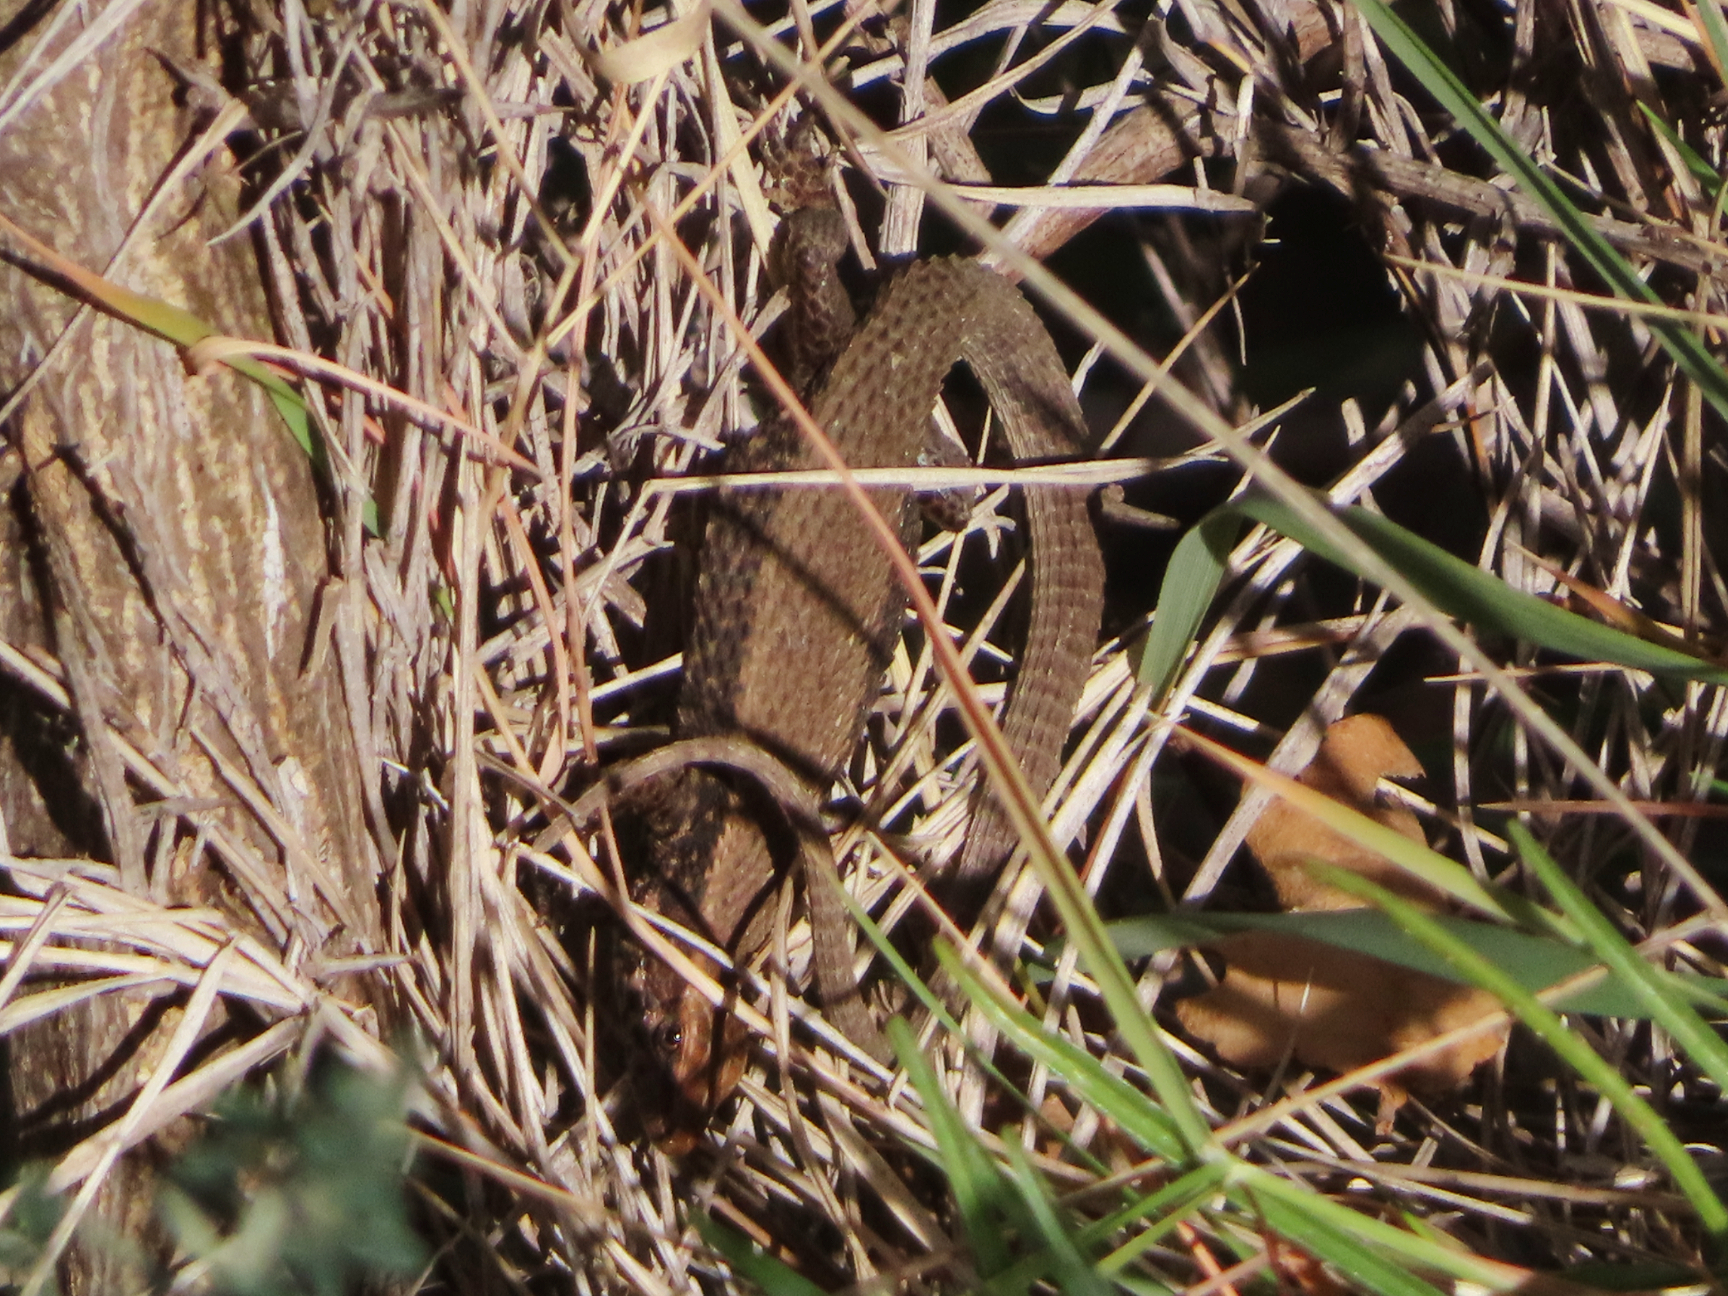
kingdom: Animalia
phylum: Chordata
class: Squamata
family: Lacertidae
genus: Algyroides
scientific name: Algyroides moreoticus
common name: Greek algyroides
